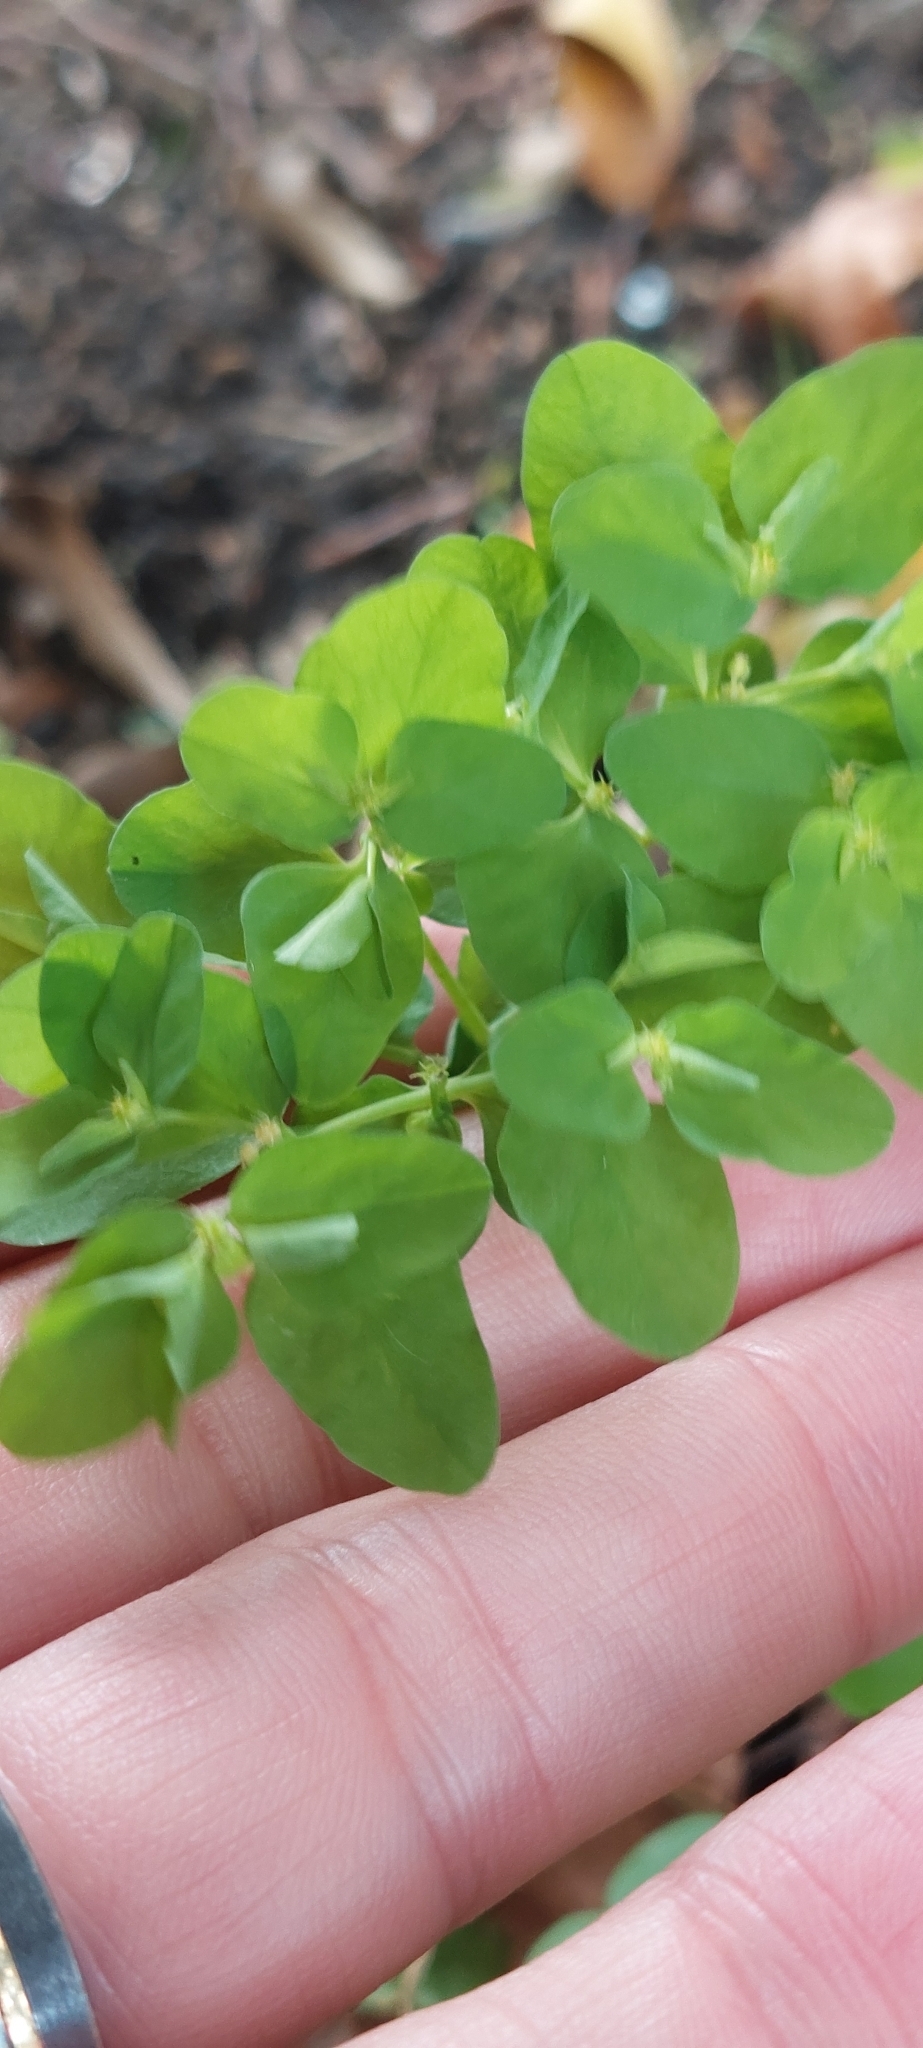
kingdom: Plantae
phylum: Tracheophyta
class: Magnoliopsida
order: Malpighiales
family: Euphorbiaceae
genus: Euphorbia
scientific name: Euphorbia peplus
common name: Petty spurge
